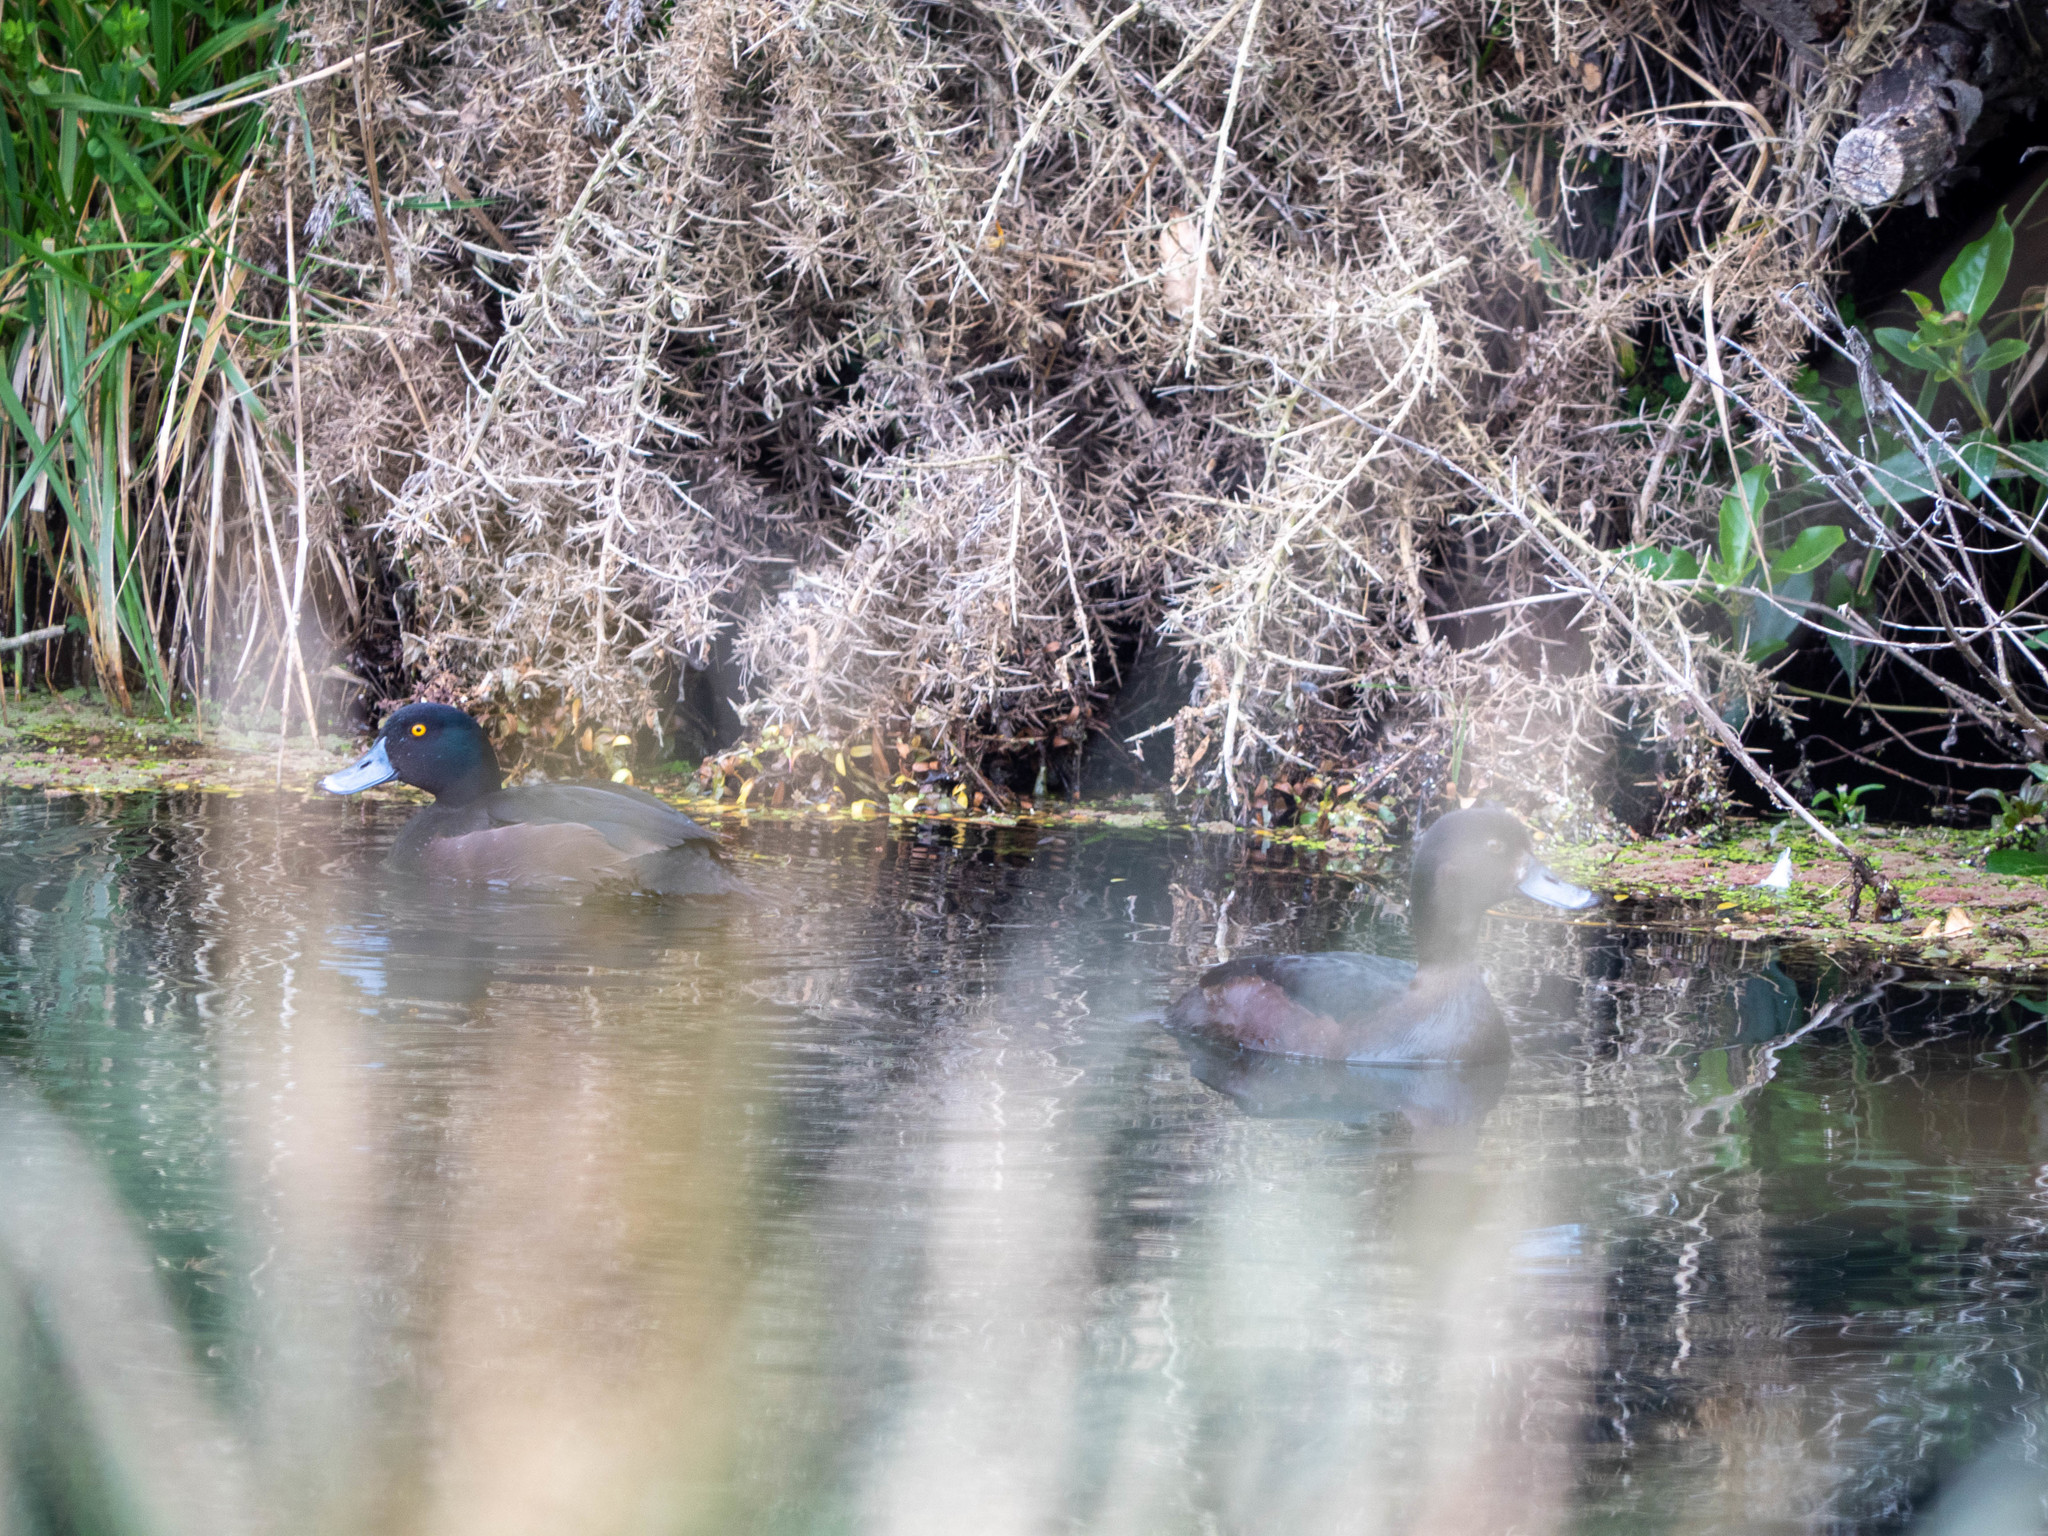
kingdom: Animalia
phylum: Chordata
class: Aves
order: Anseriformes
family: Anatidae
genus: Aythya
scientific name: Aythya novaeseelandiae
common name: New zealand scaup
